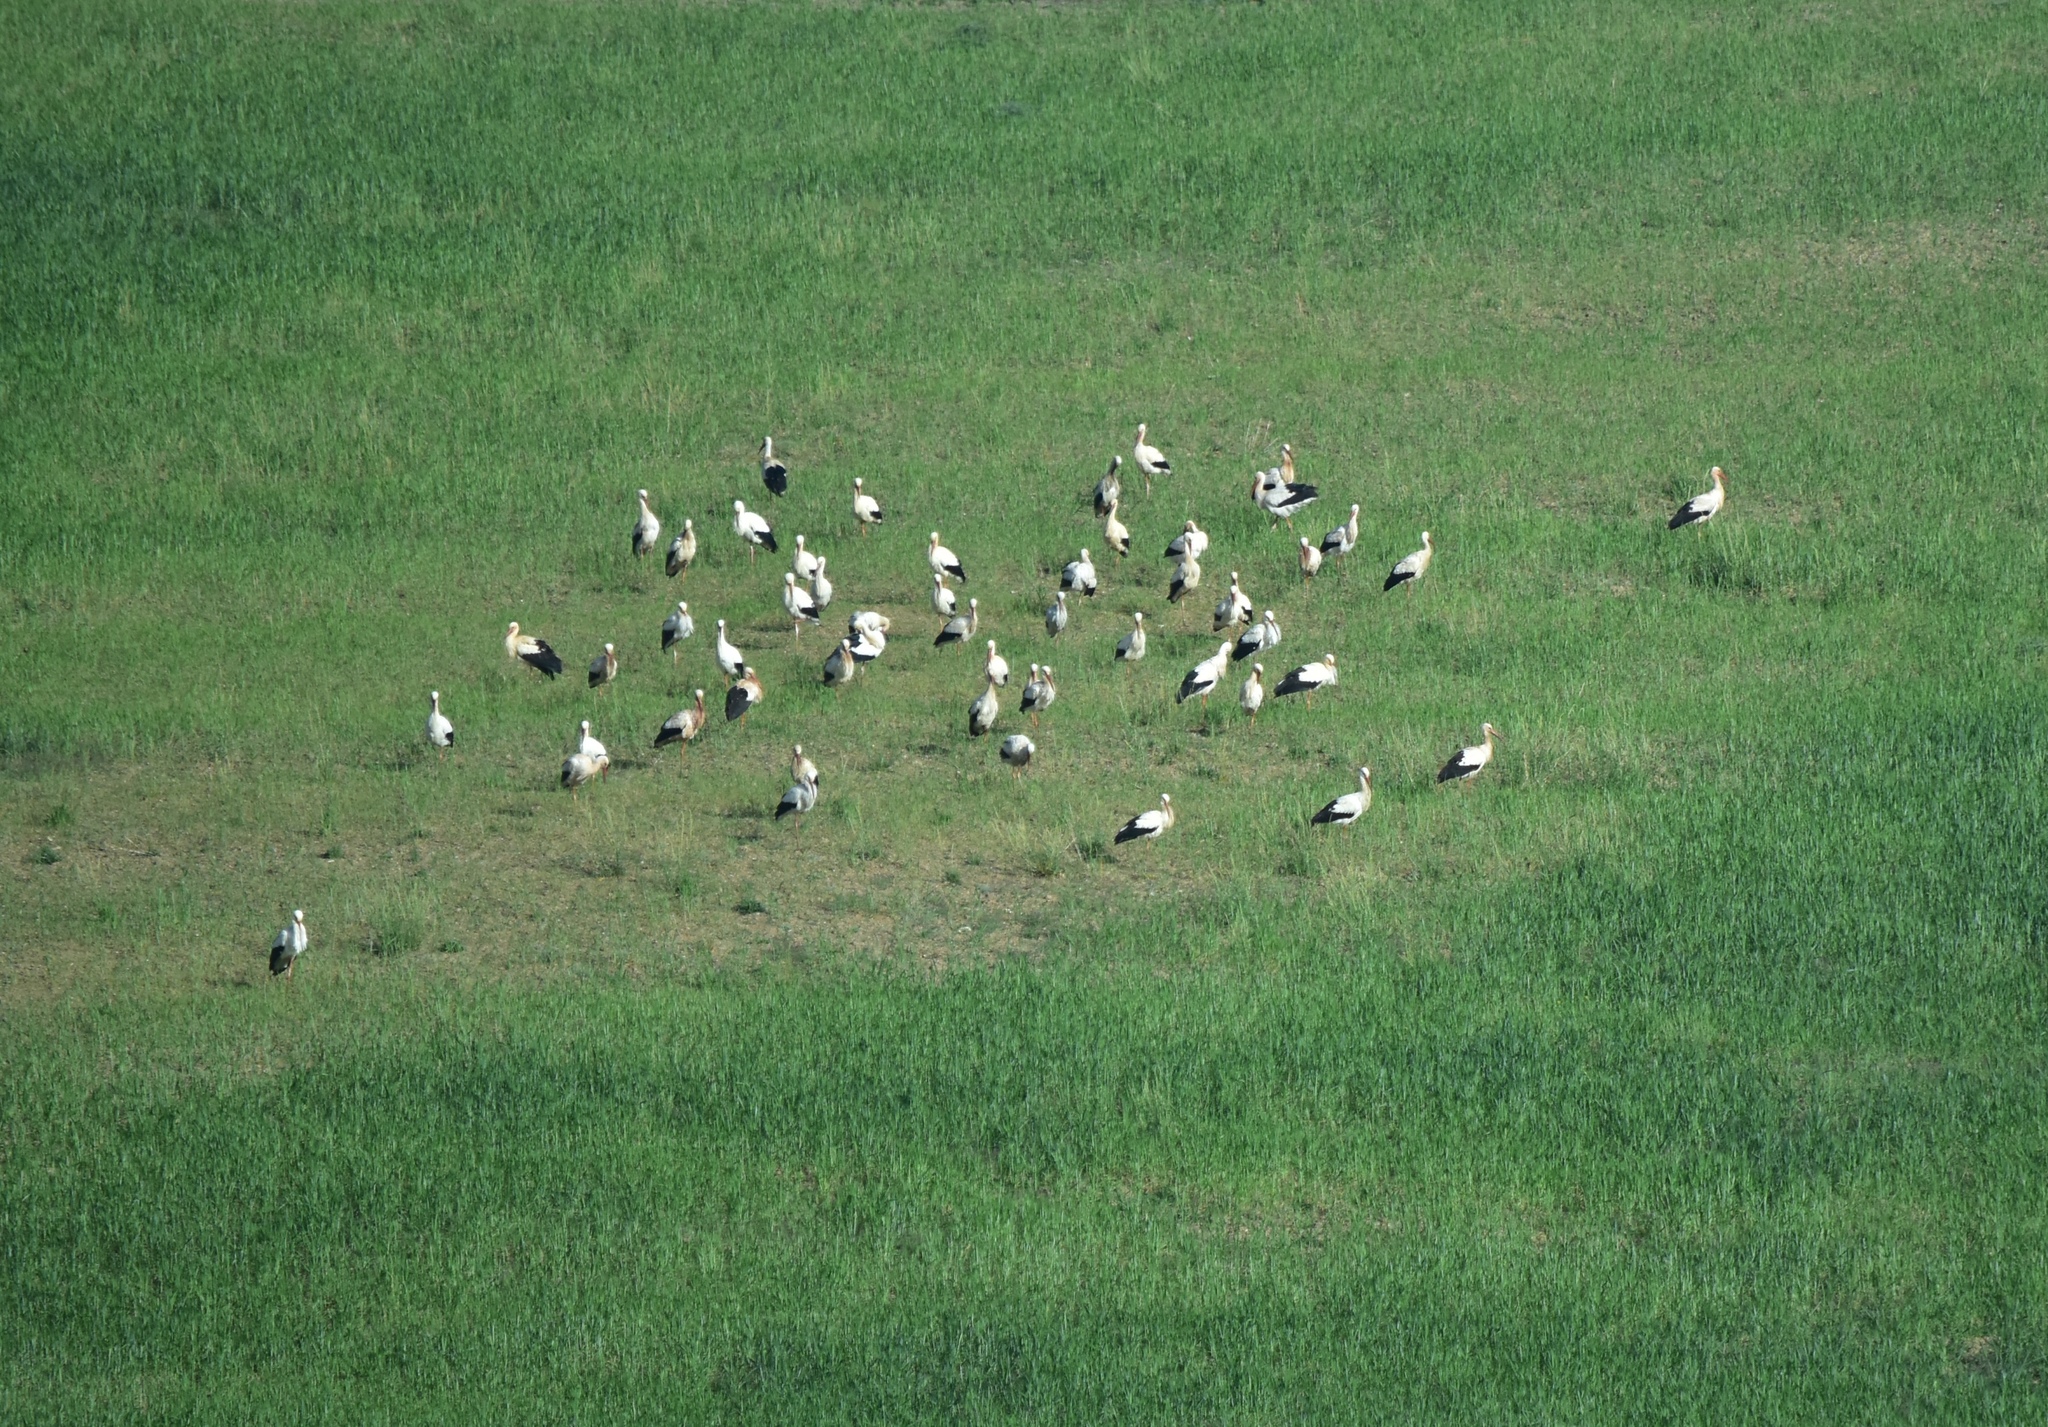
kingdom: Animalia
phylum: Chordata
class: Aves
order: Ciconiiformes
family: Ciconiidae
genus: Ciconia
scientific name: Ciconia ciconia
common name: White stork
